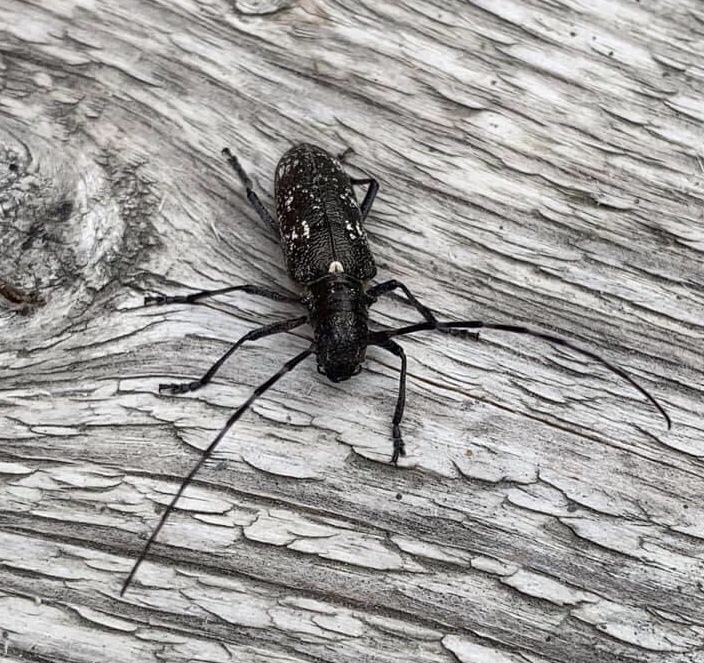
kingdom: Animalia
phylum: Arthropoda
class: Insecta
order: Coleoptera
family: Cerambycidae
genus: Monochamus
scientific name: Monochamus scutellatus
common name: White-spotted sawyer beetle
